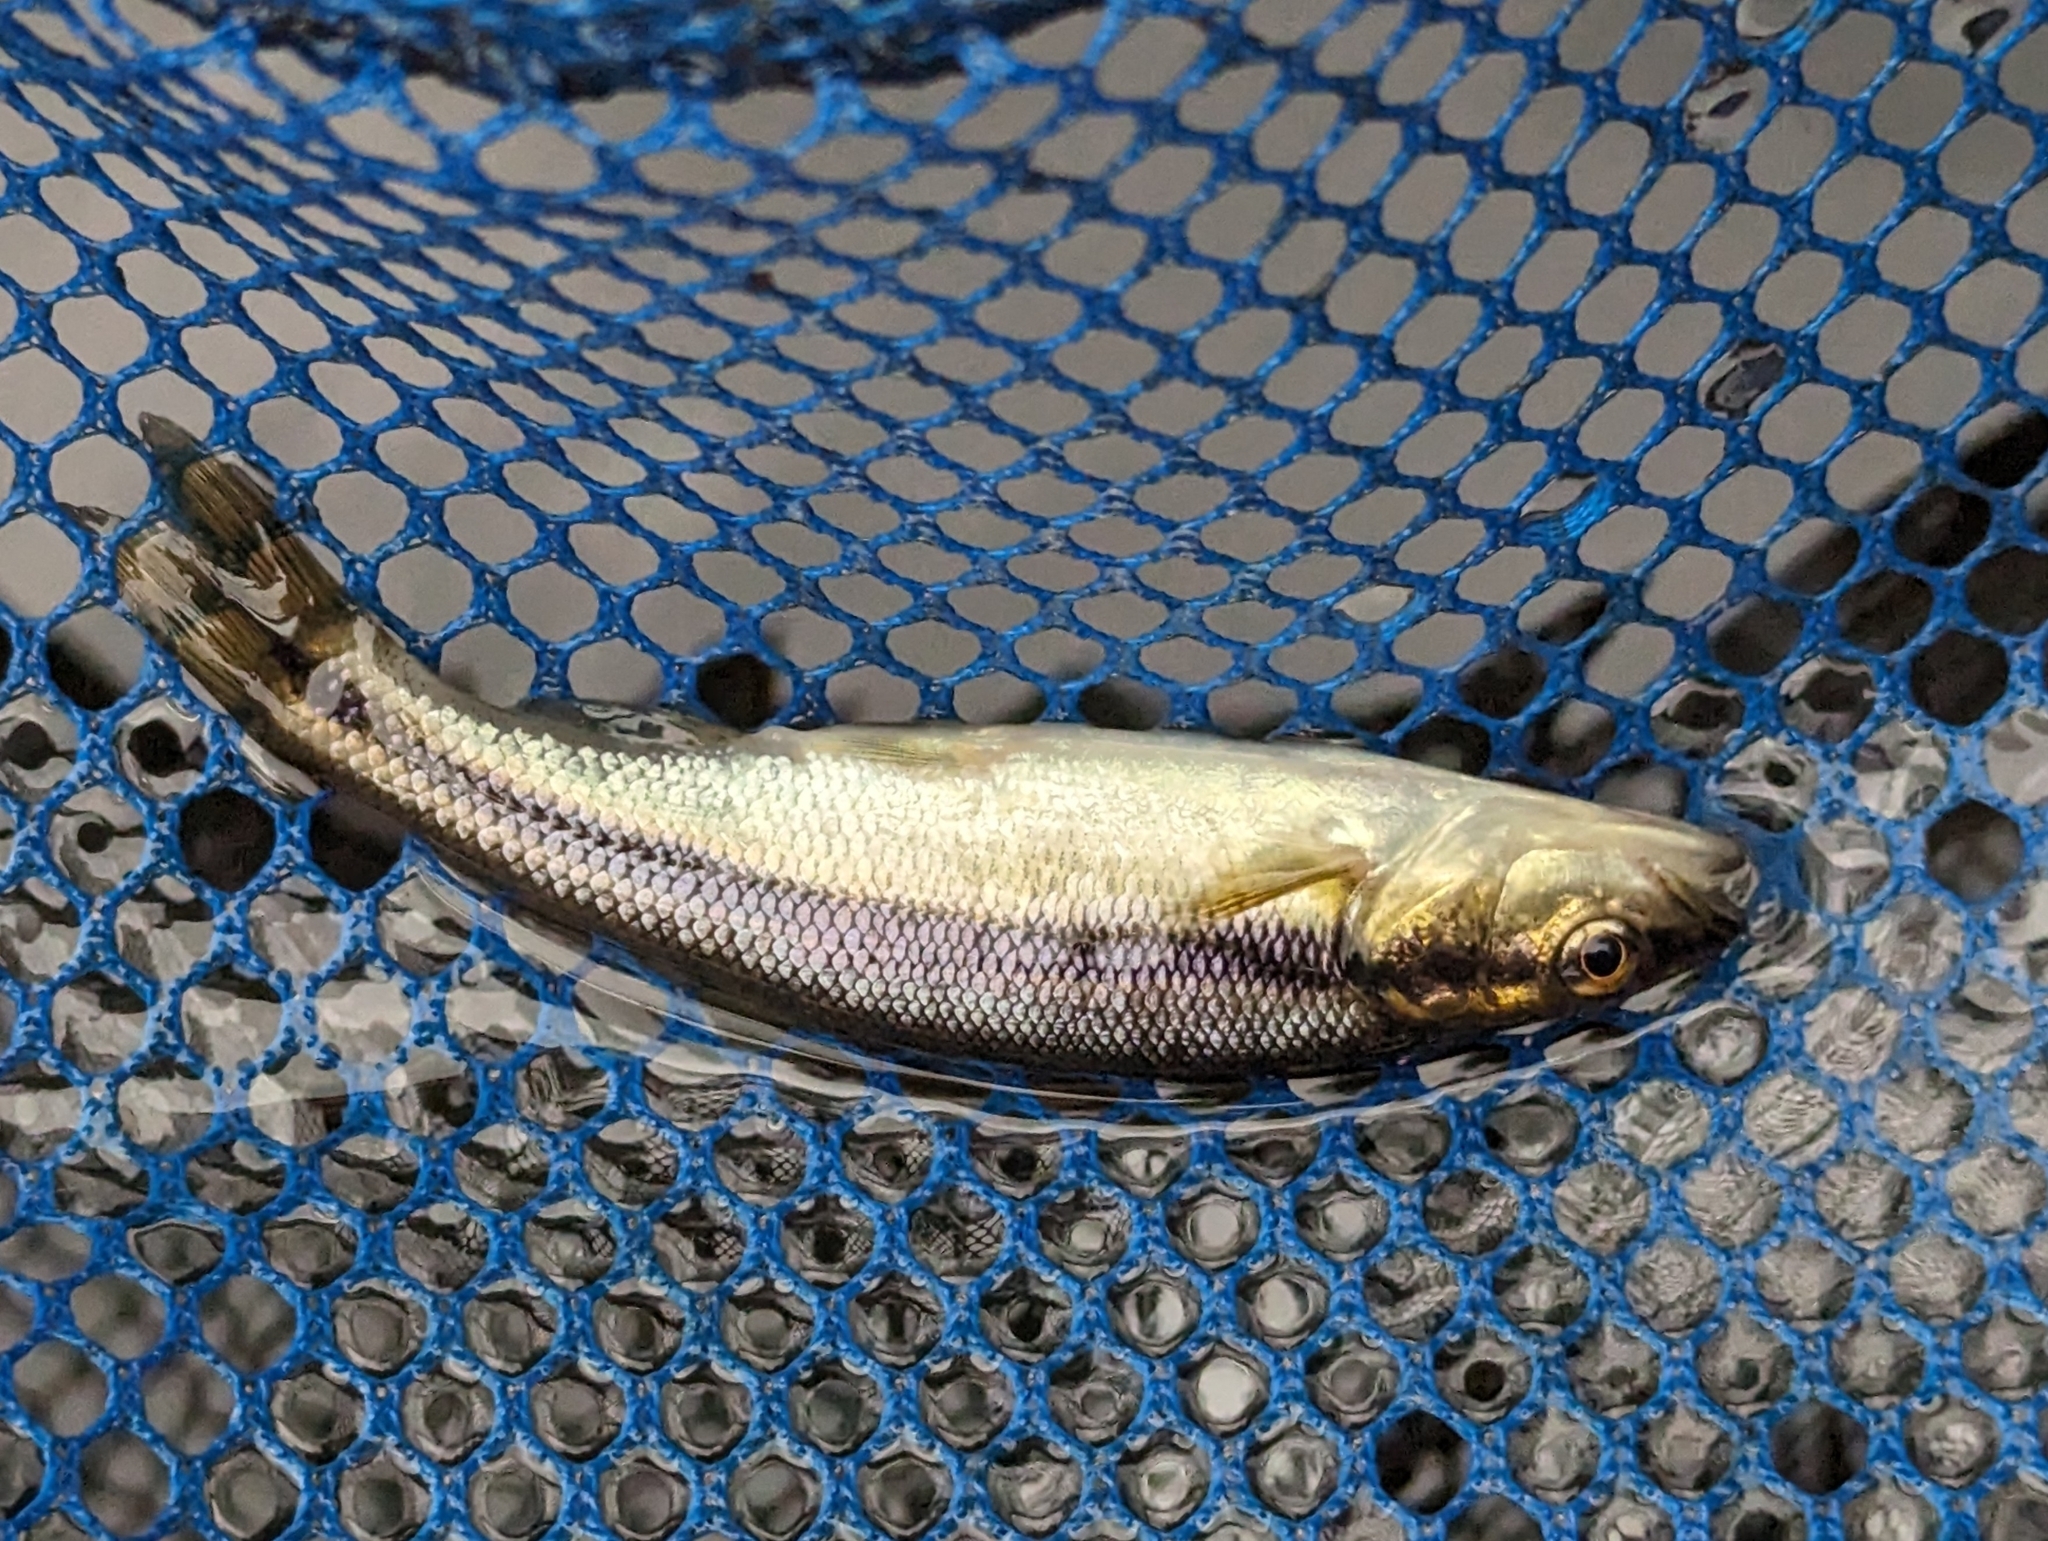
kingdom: Animalia
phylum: Chordata
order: Cypriniformes
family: Cyprinidae
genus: Semotilus
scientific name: Semotilus atromaculatus
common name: Creek chub
